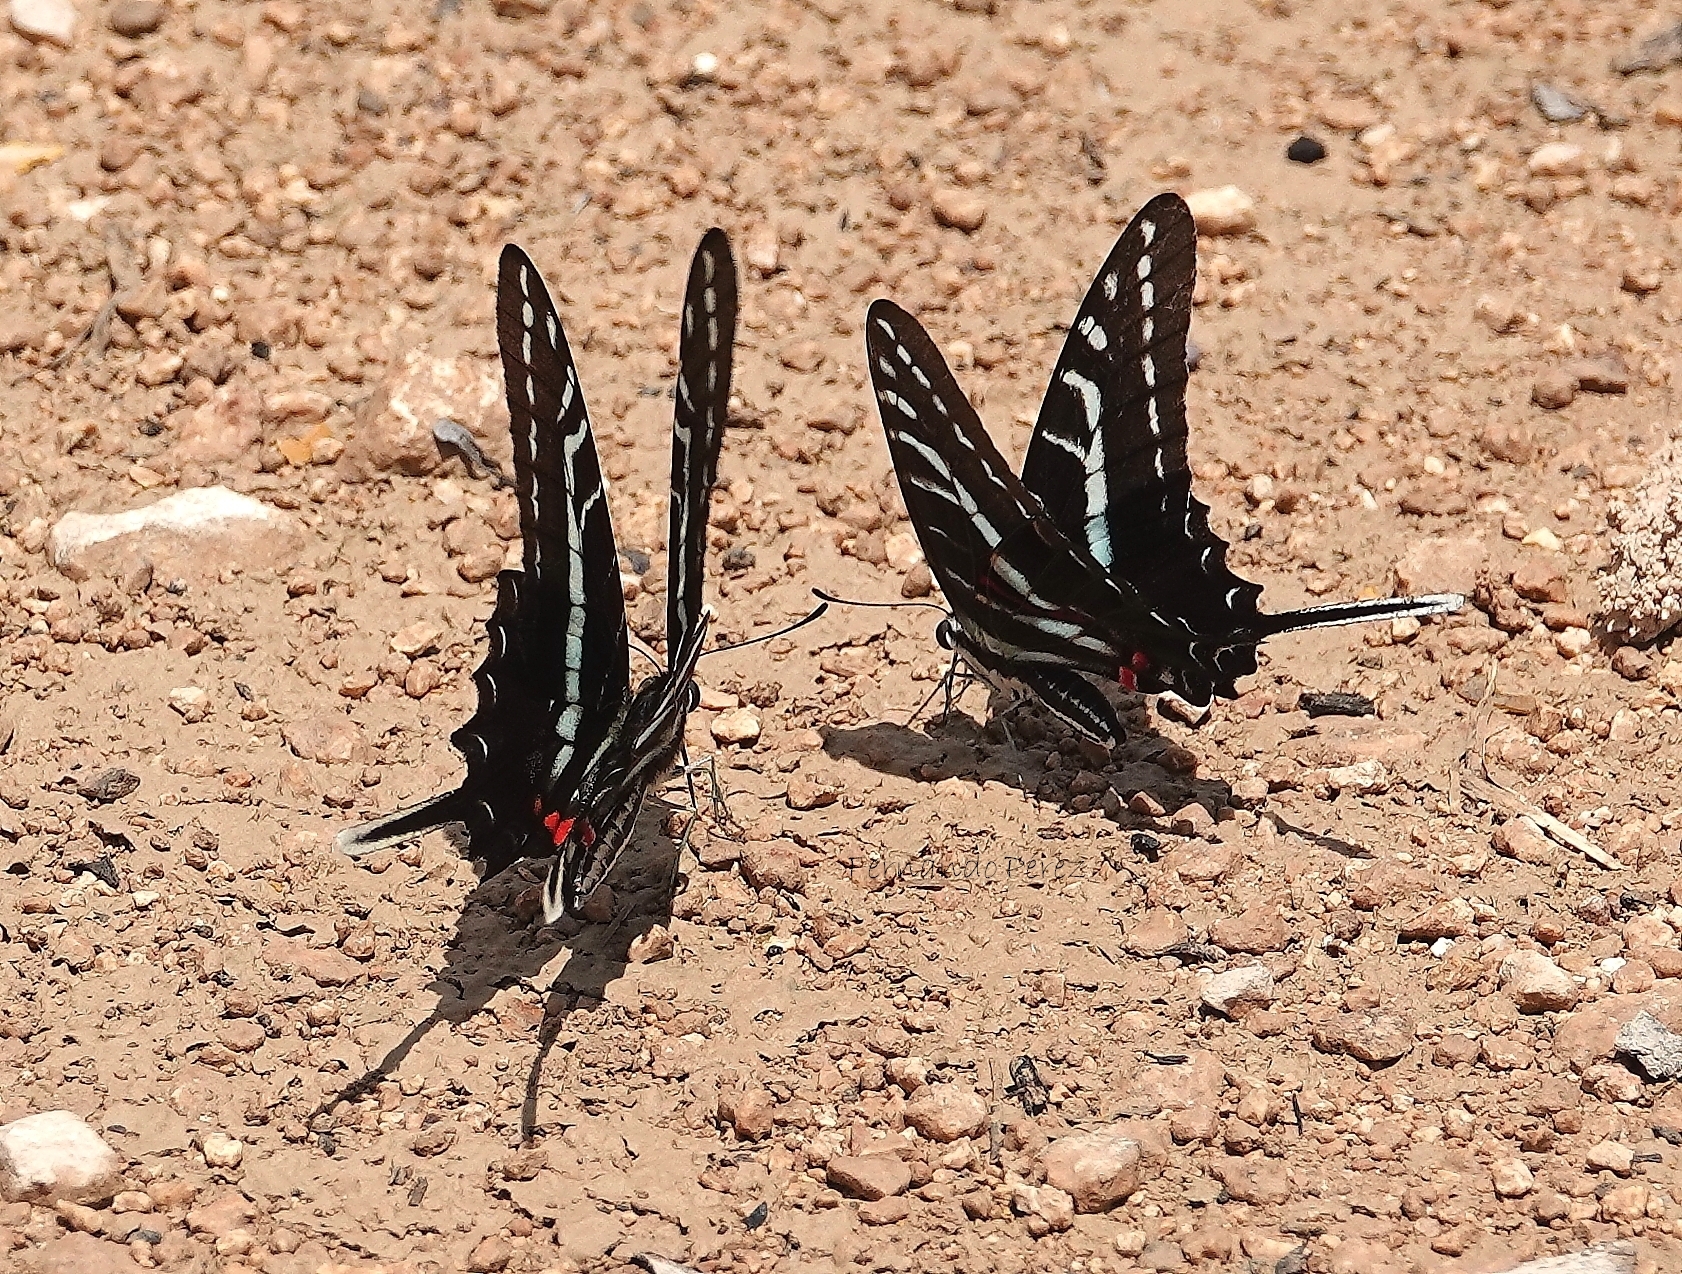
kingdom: Animalia
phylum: Arthropoda
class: Insecta
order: Lepidoptera
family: Papilionidae
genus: Protographium
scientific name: Protographium philolaus
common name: Dark zebra swallowtail
